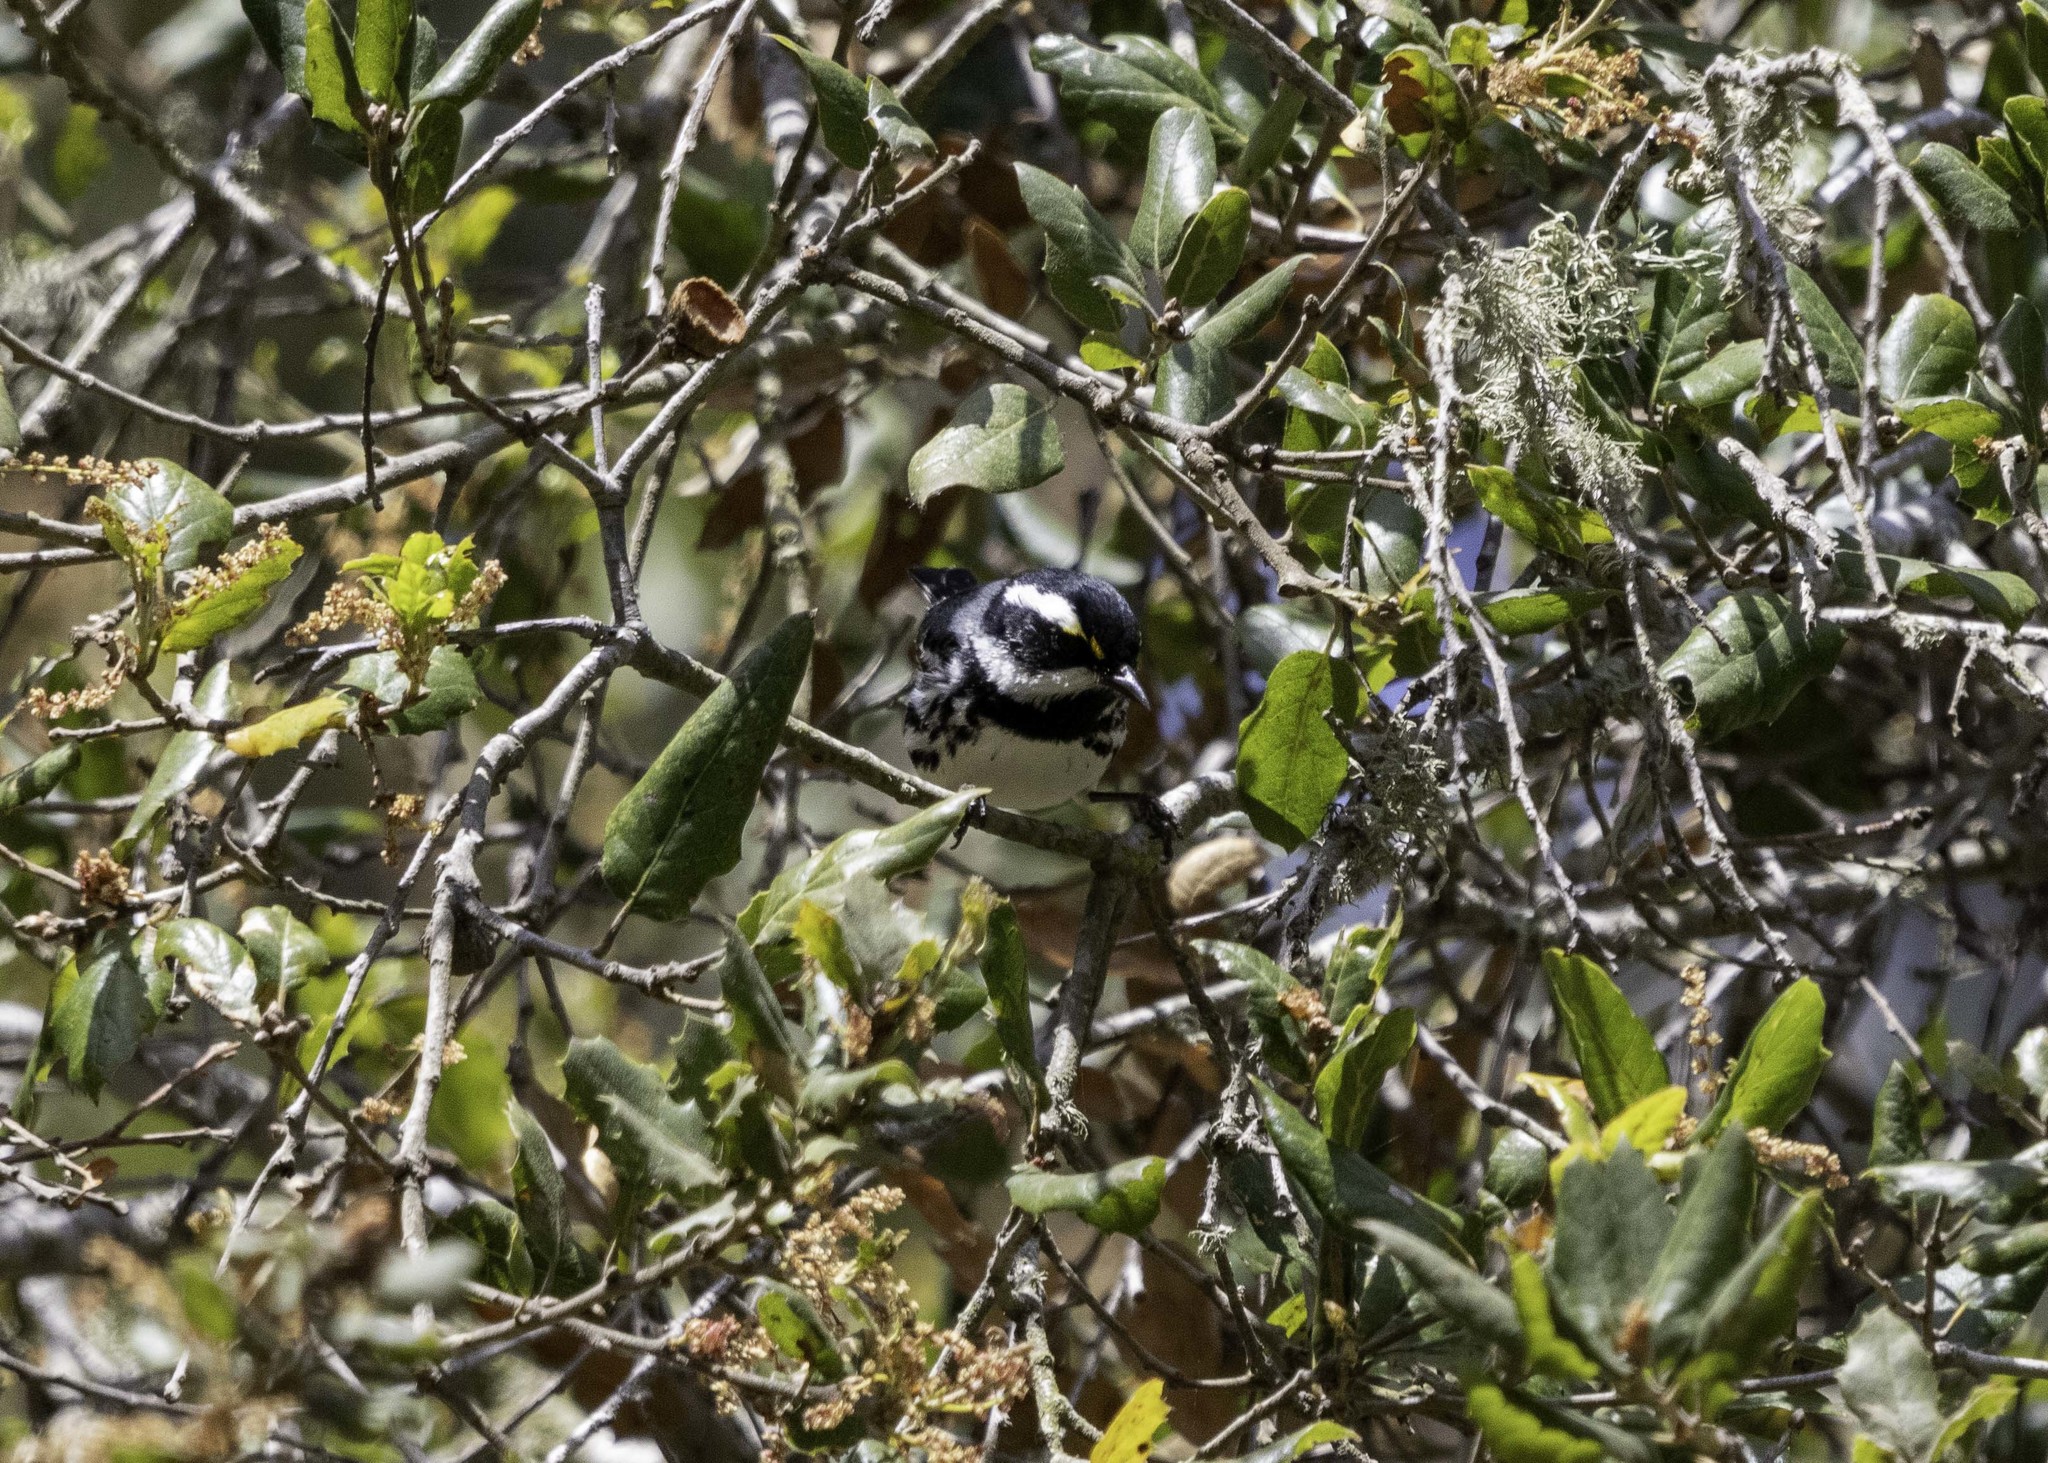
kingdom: Animalia
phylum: Chordata
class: Aves
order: Passeriformes
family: Parulidae
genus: Setophaga
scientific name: Setophaga nigrescens
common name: Black-throated gray warbler
